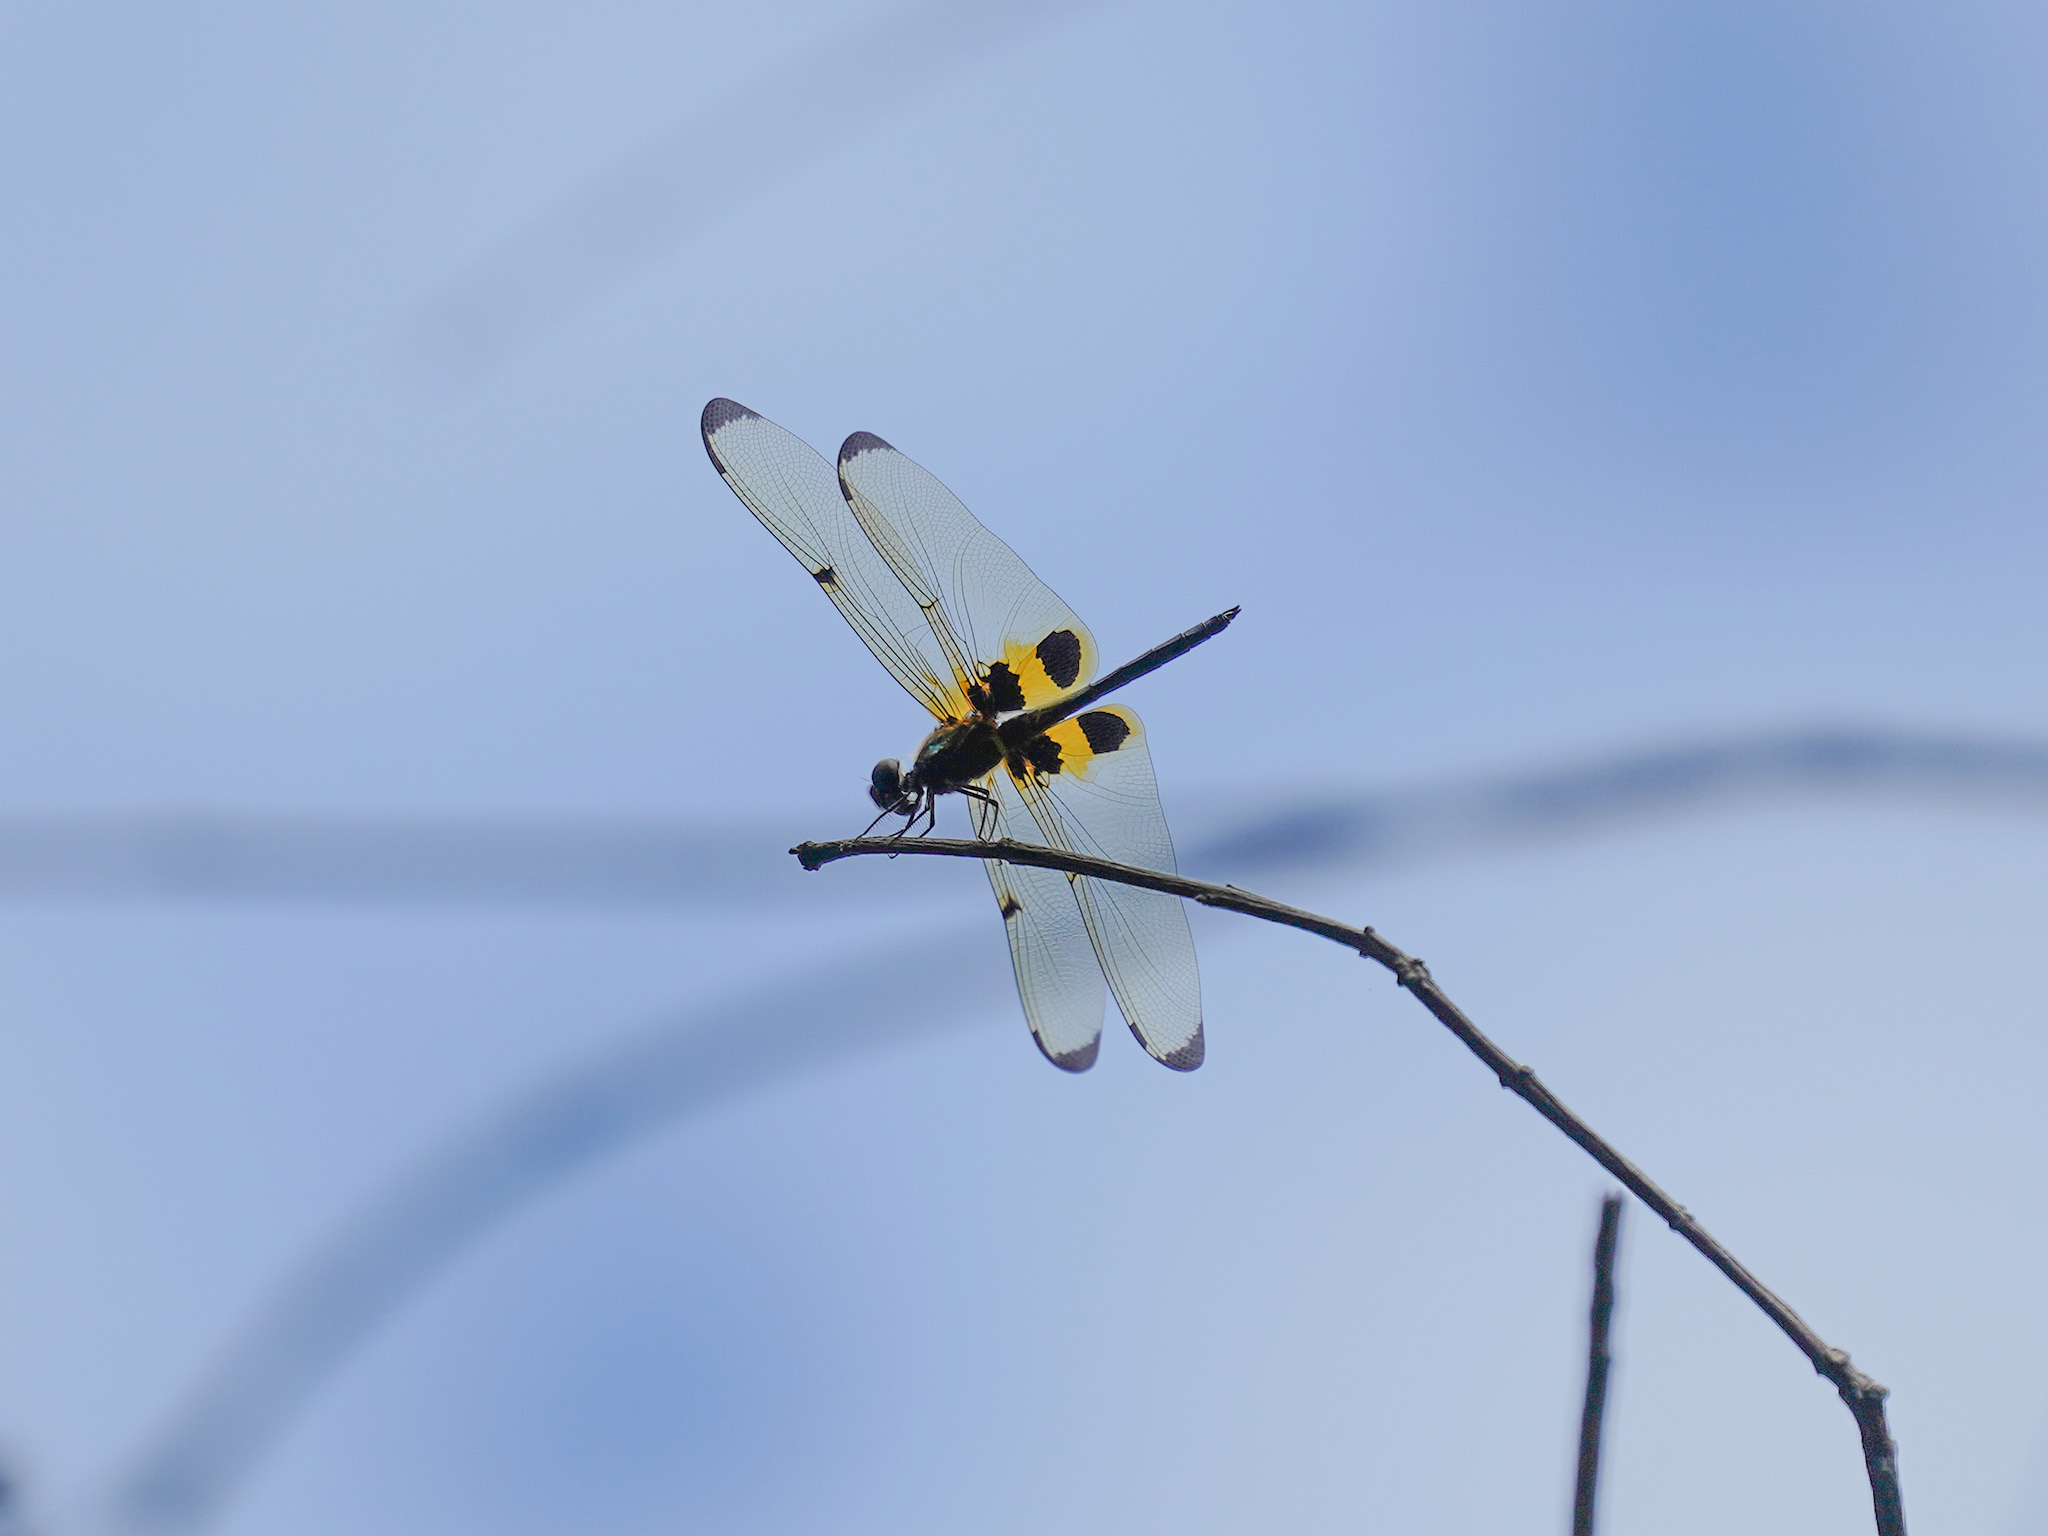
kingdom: Animalia
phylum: Arthropoda
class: Insecta
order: Odonata
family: Libellulidae
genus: Rhyothemis
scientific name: Rhyothemis phyllis
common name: Yellow-barred flutterer
